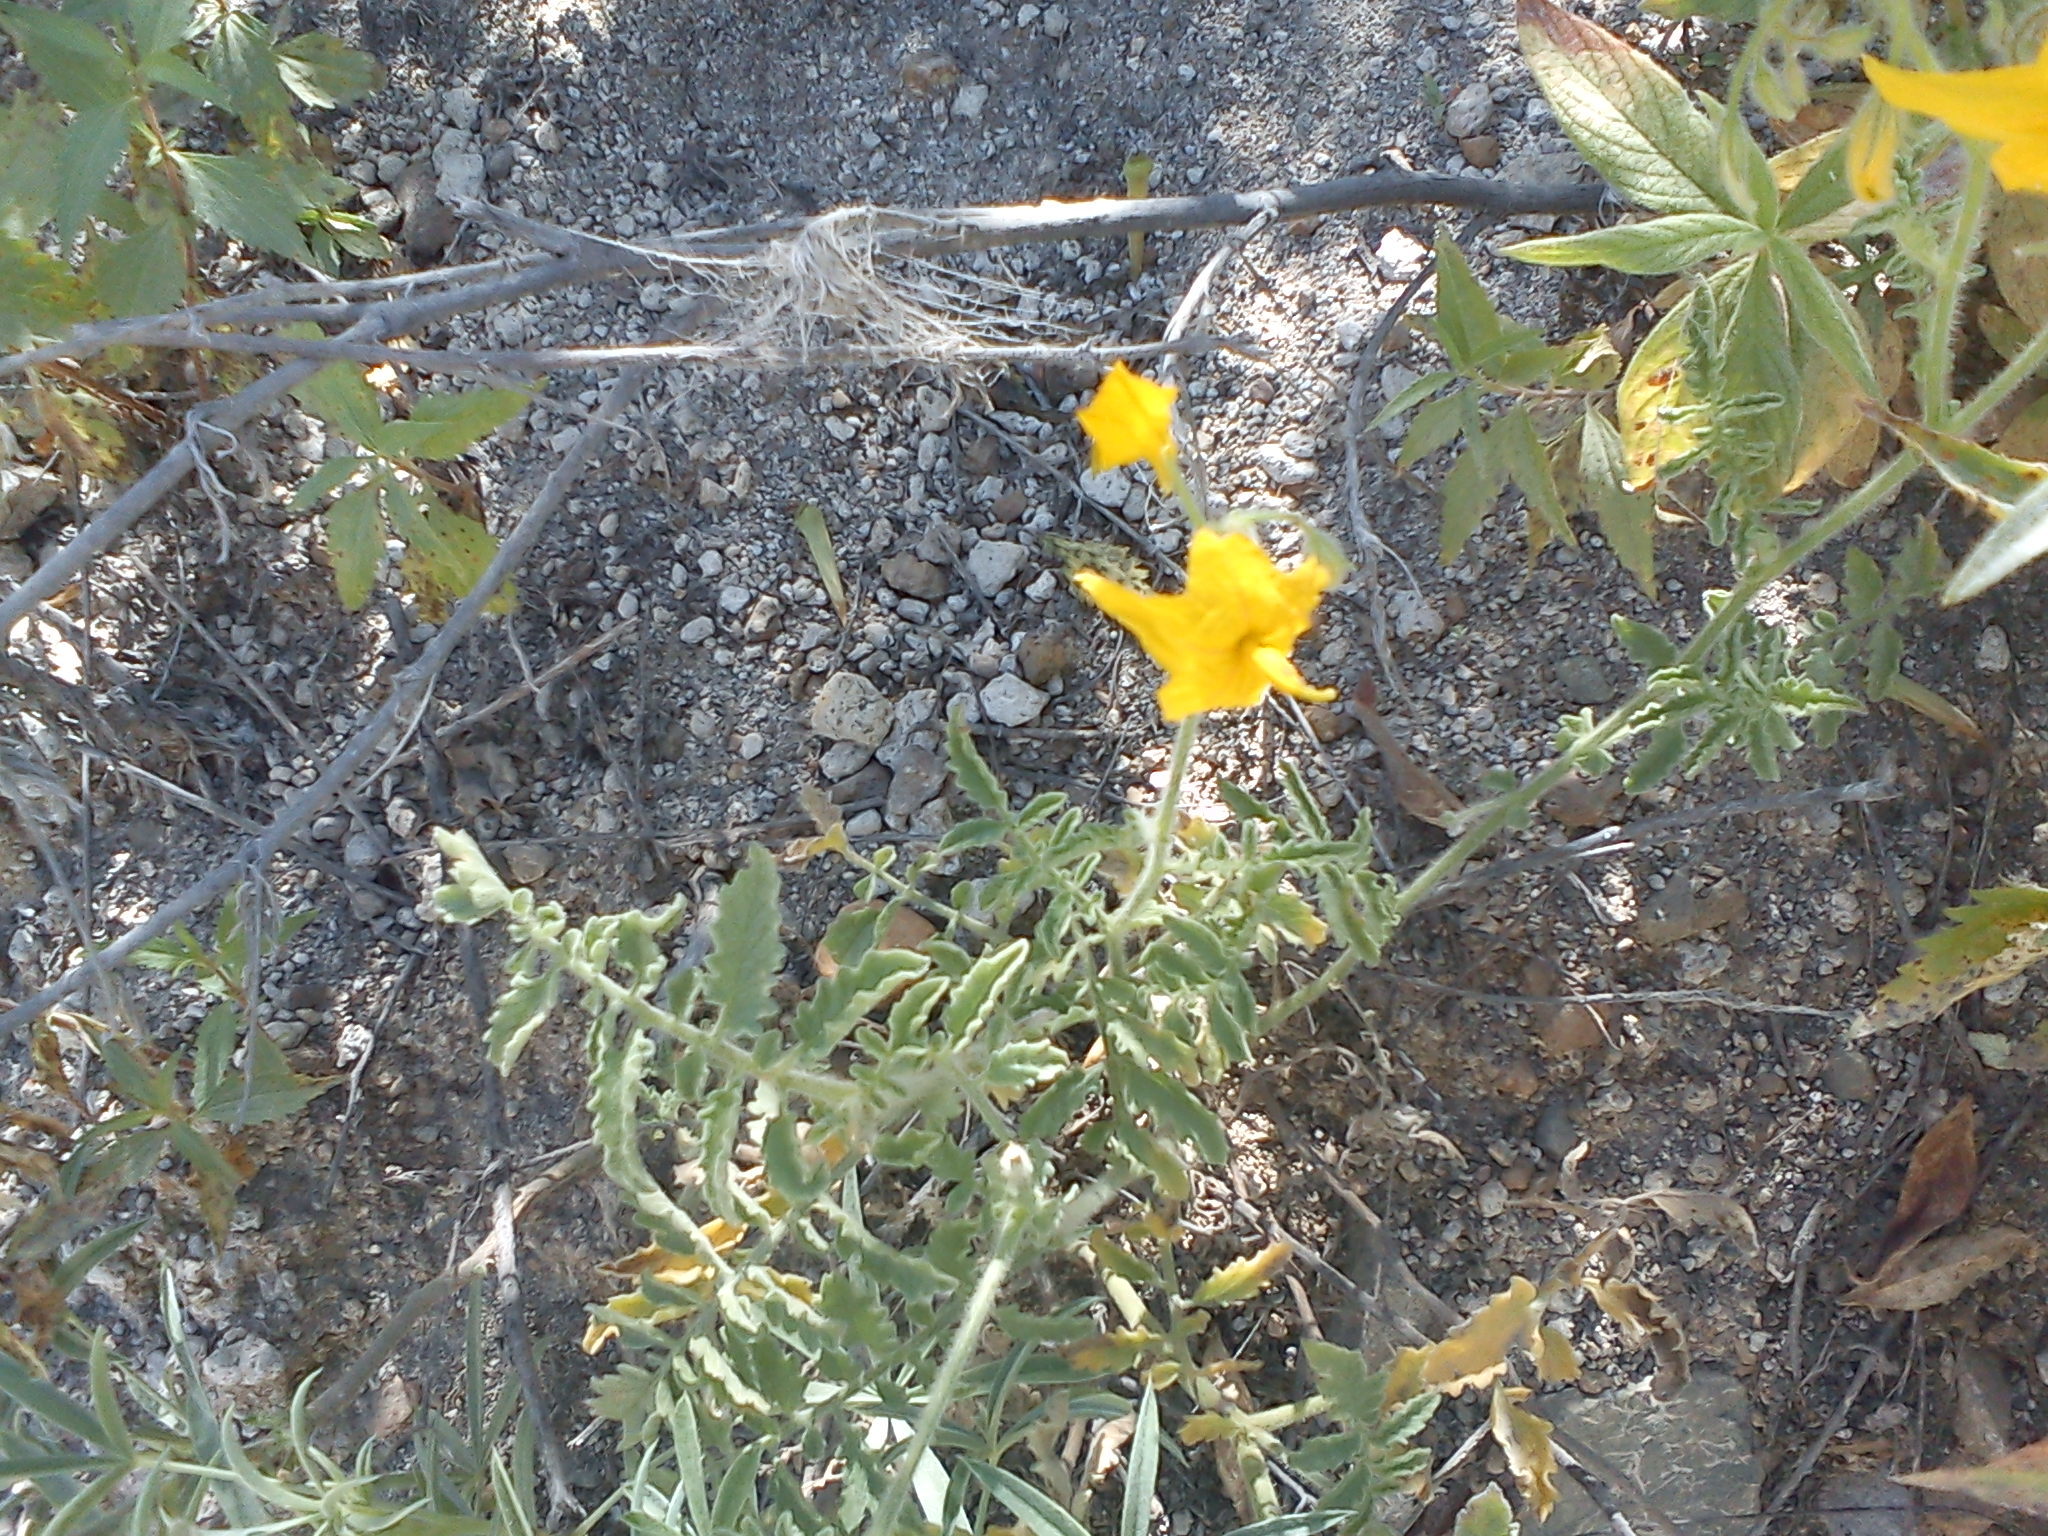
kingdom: Plantae
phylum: Tracheophyta
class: Magnoliopsida
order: Solanales
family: Solanaceae
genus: Solanum
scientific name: Solanum peruvianum
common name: Peruvian nightshade
